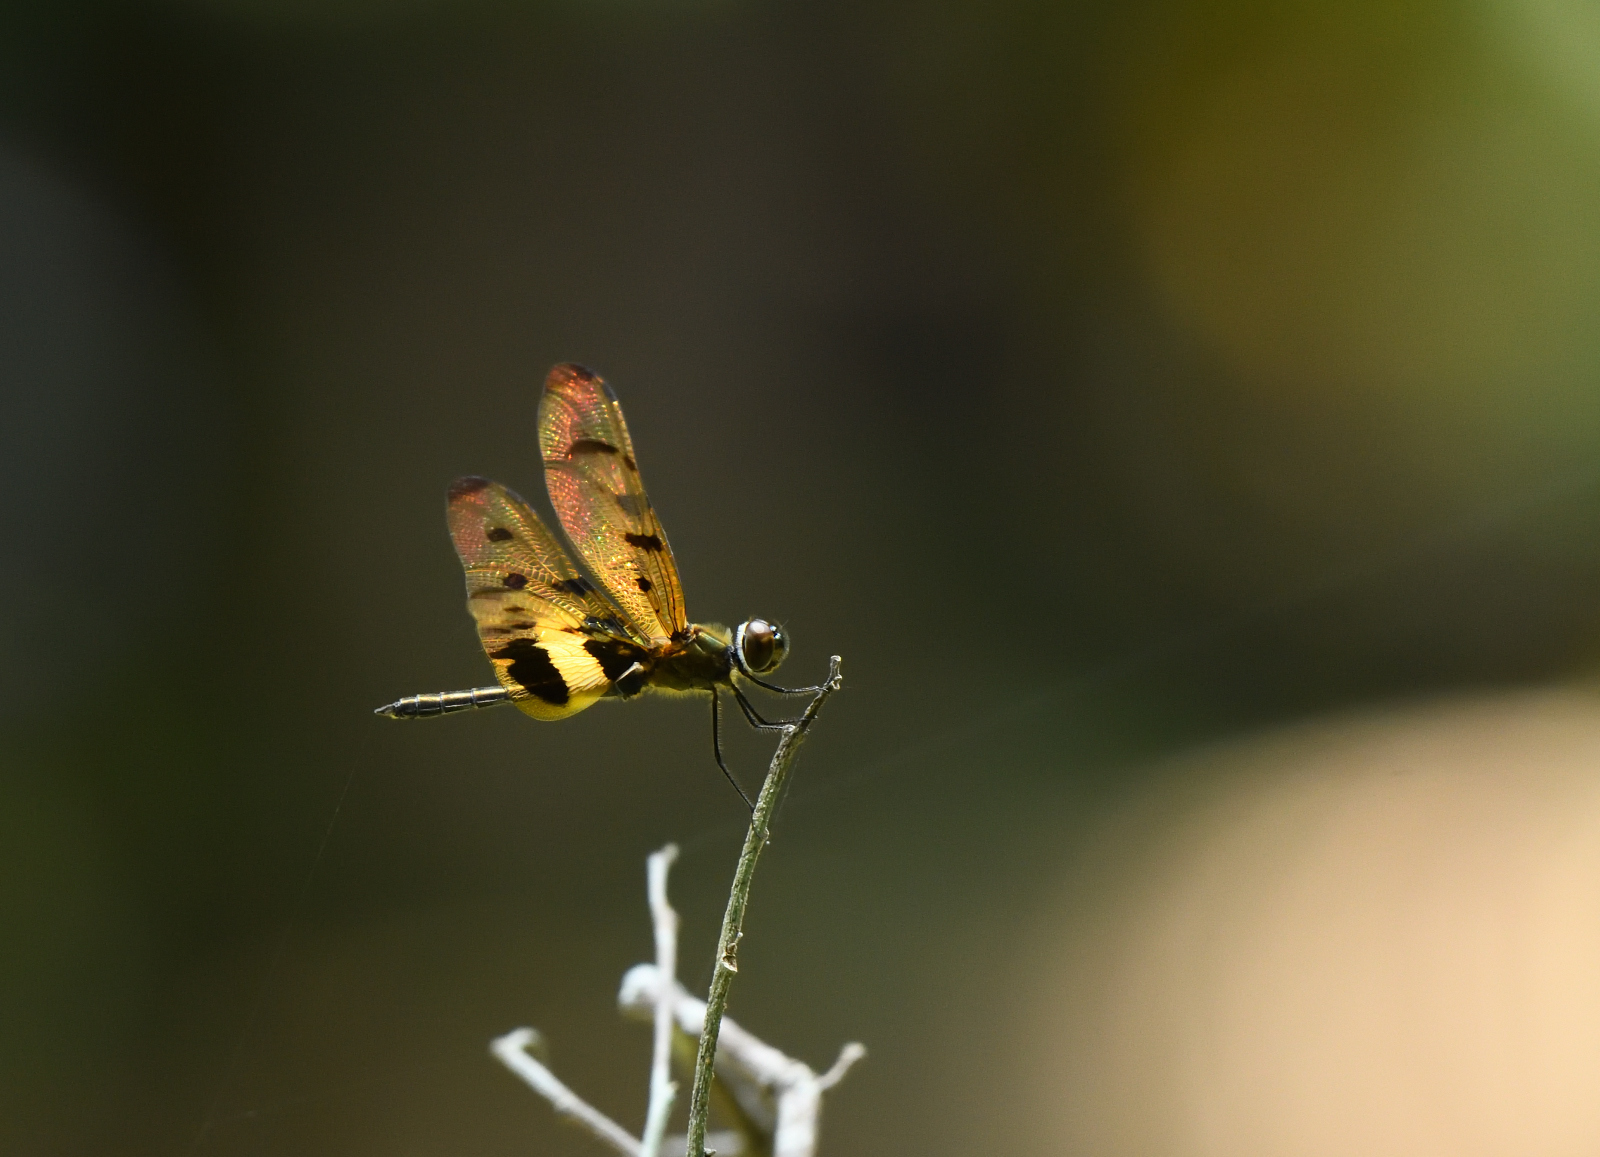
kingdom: Animalia
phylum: Arthropoda
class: Insecta
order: Odonata
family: Libellulidae
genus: Rhyothemis
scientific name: Rhyothemis variegata
